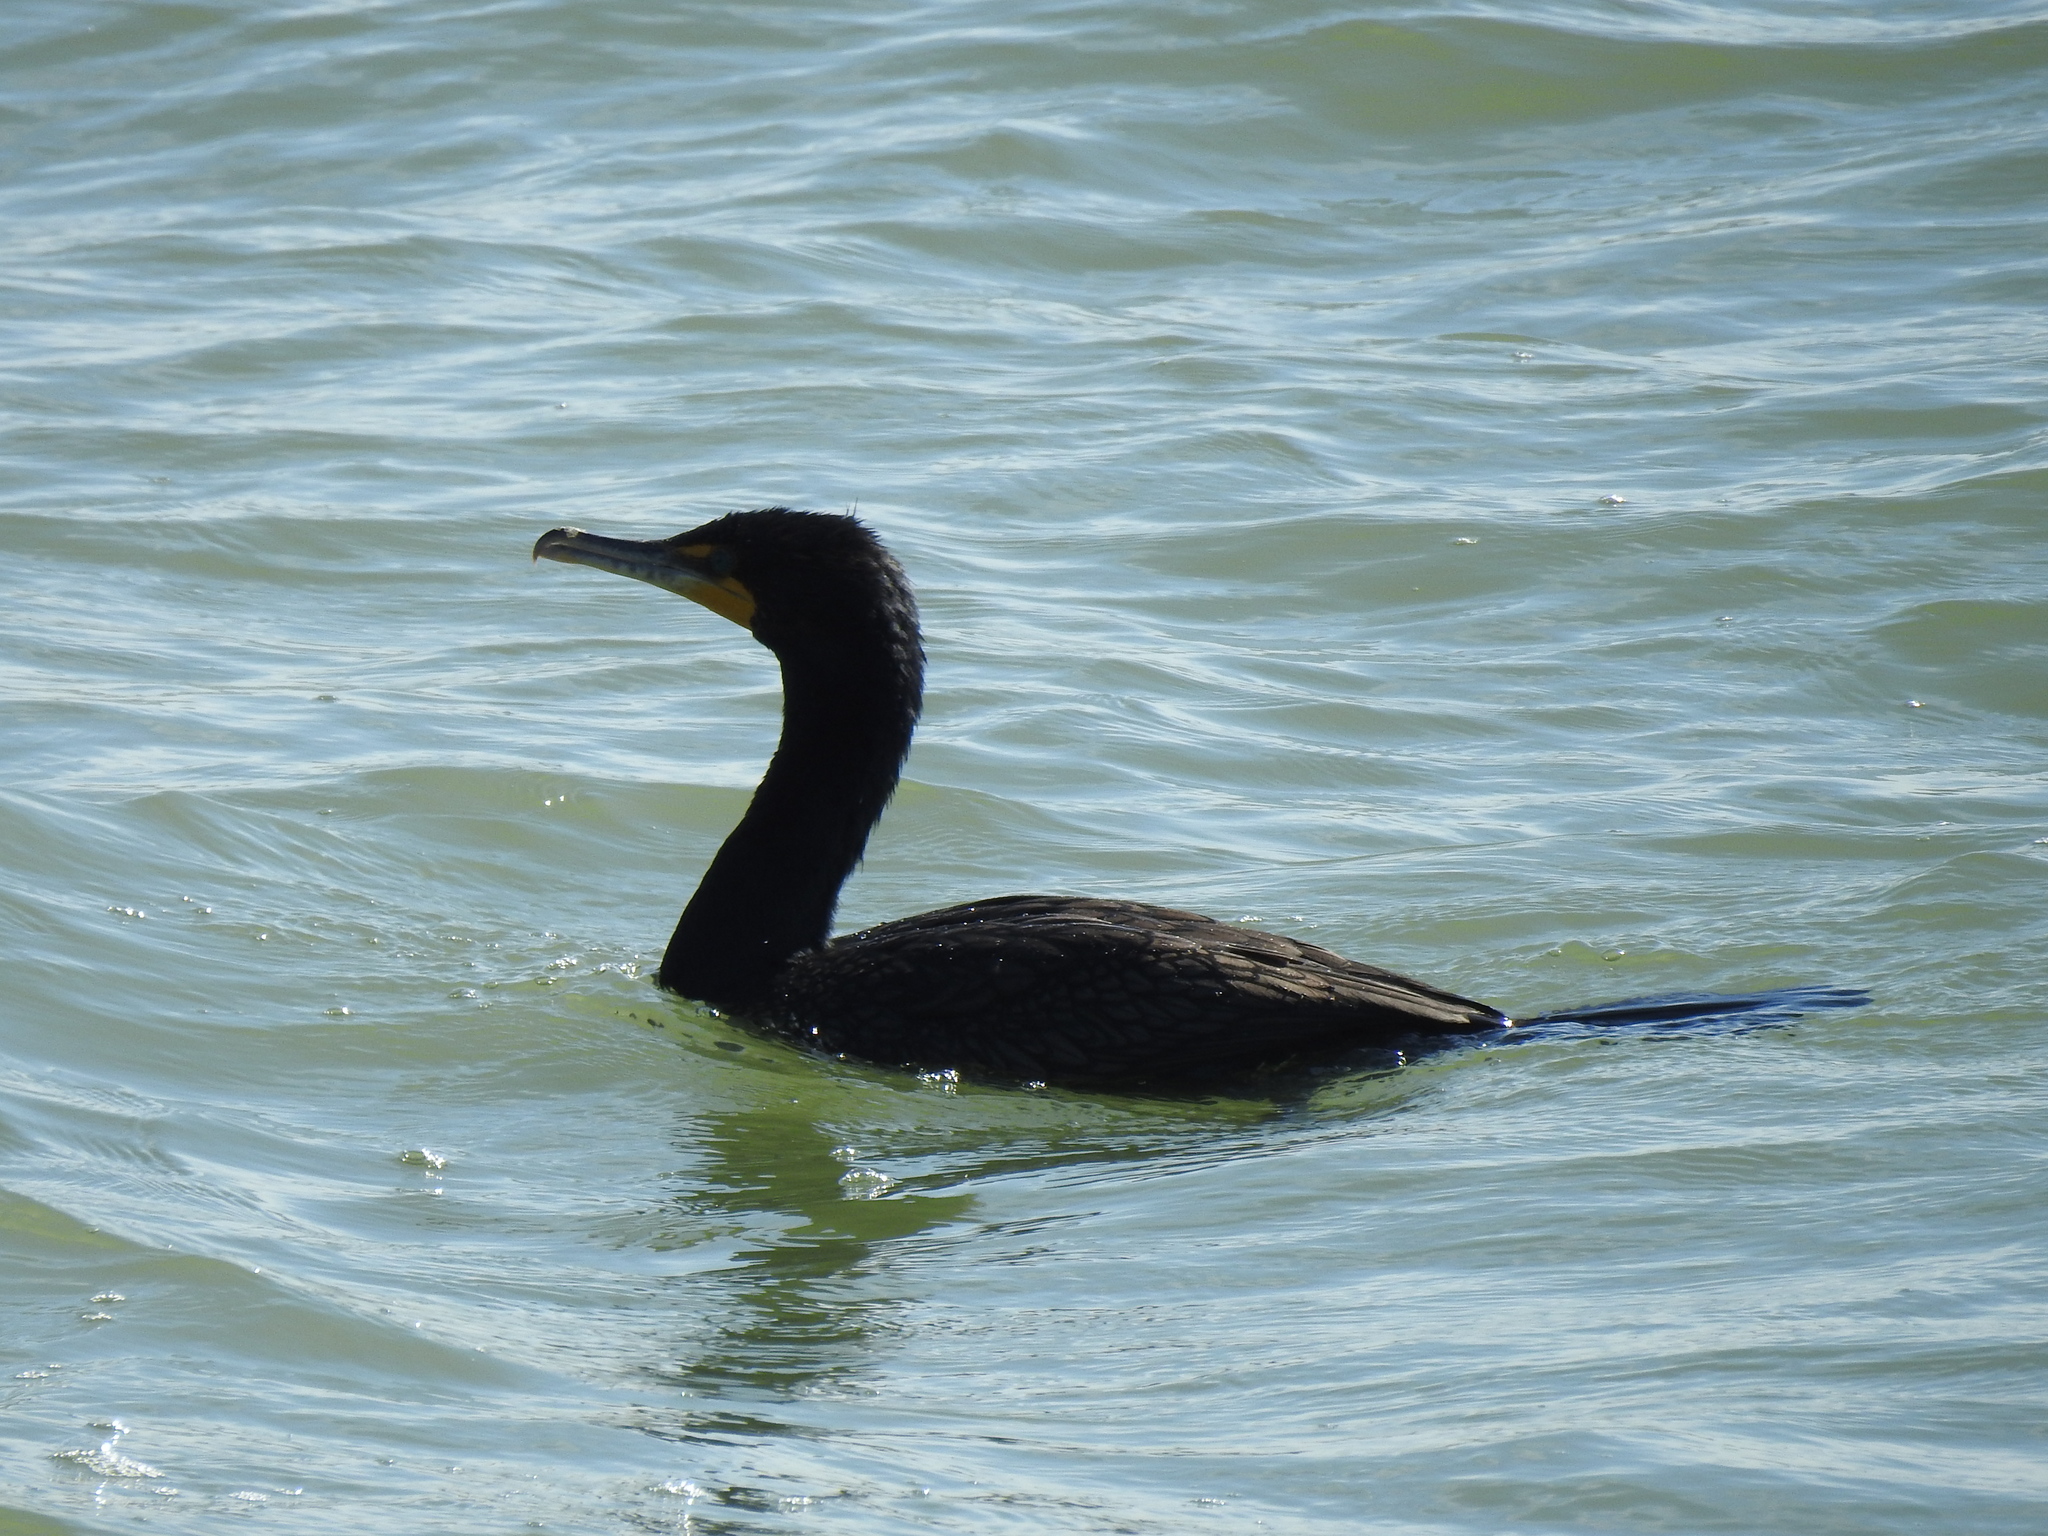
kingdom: Animalia
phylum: Chordata
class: Aves
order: Suliformes
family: Phalacrocoracidae
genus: Phalacrocorax
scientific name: Phalacrocorax auritus
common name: Double-crested cormorant
